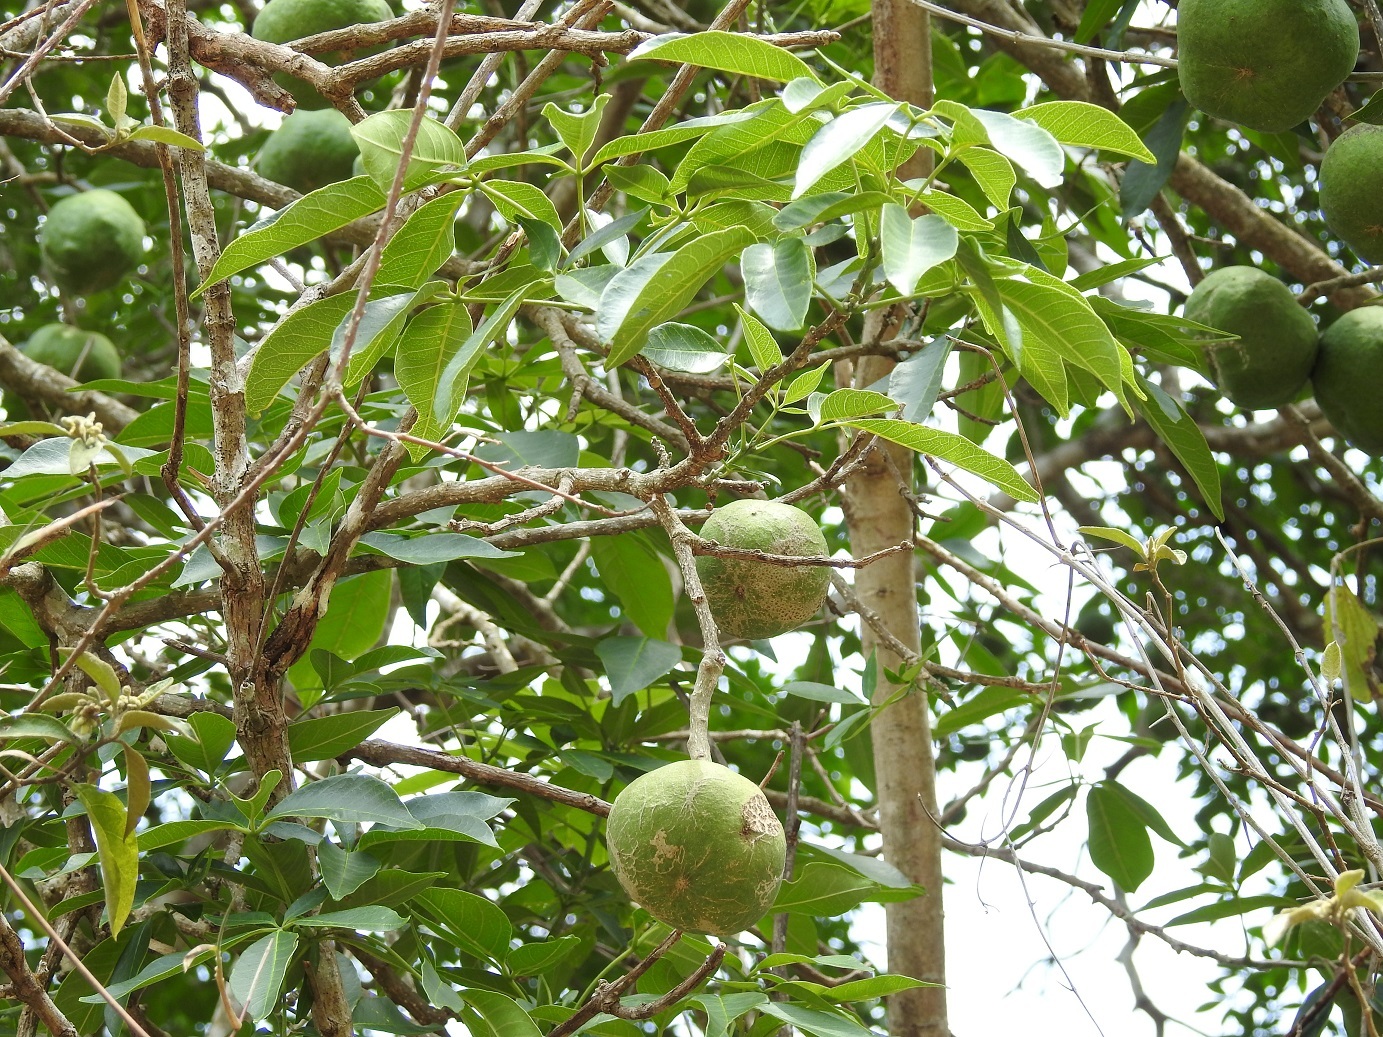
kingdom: Plantae
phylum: Tracheophyta
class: Magnoliopsida
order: Sapindales
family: Rutaceae
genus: Casimiroa
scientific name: Casimiroa edulis
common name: Mexican-apple
